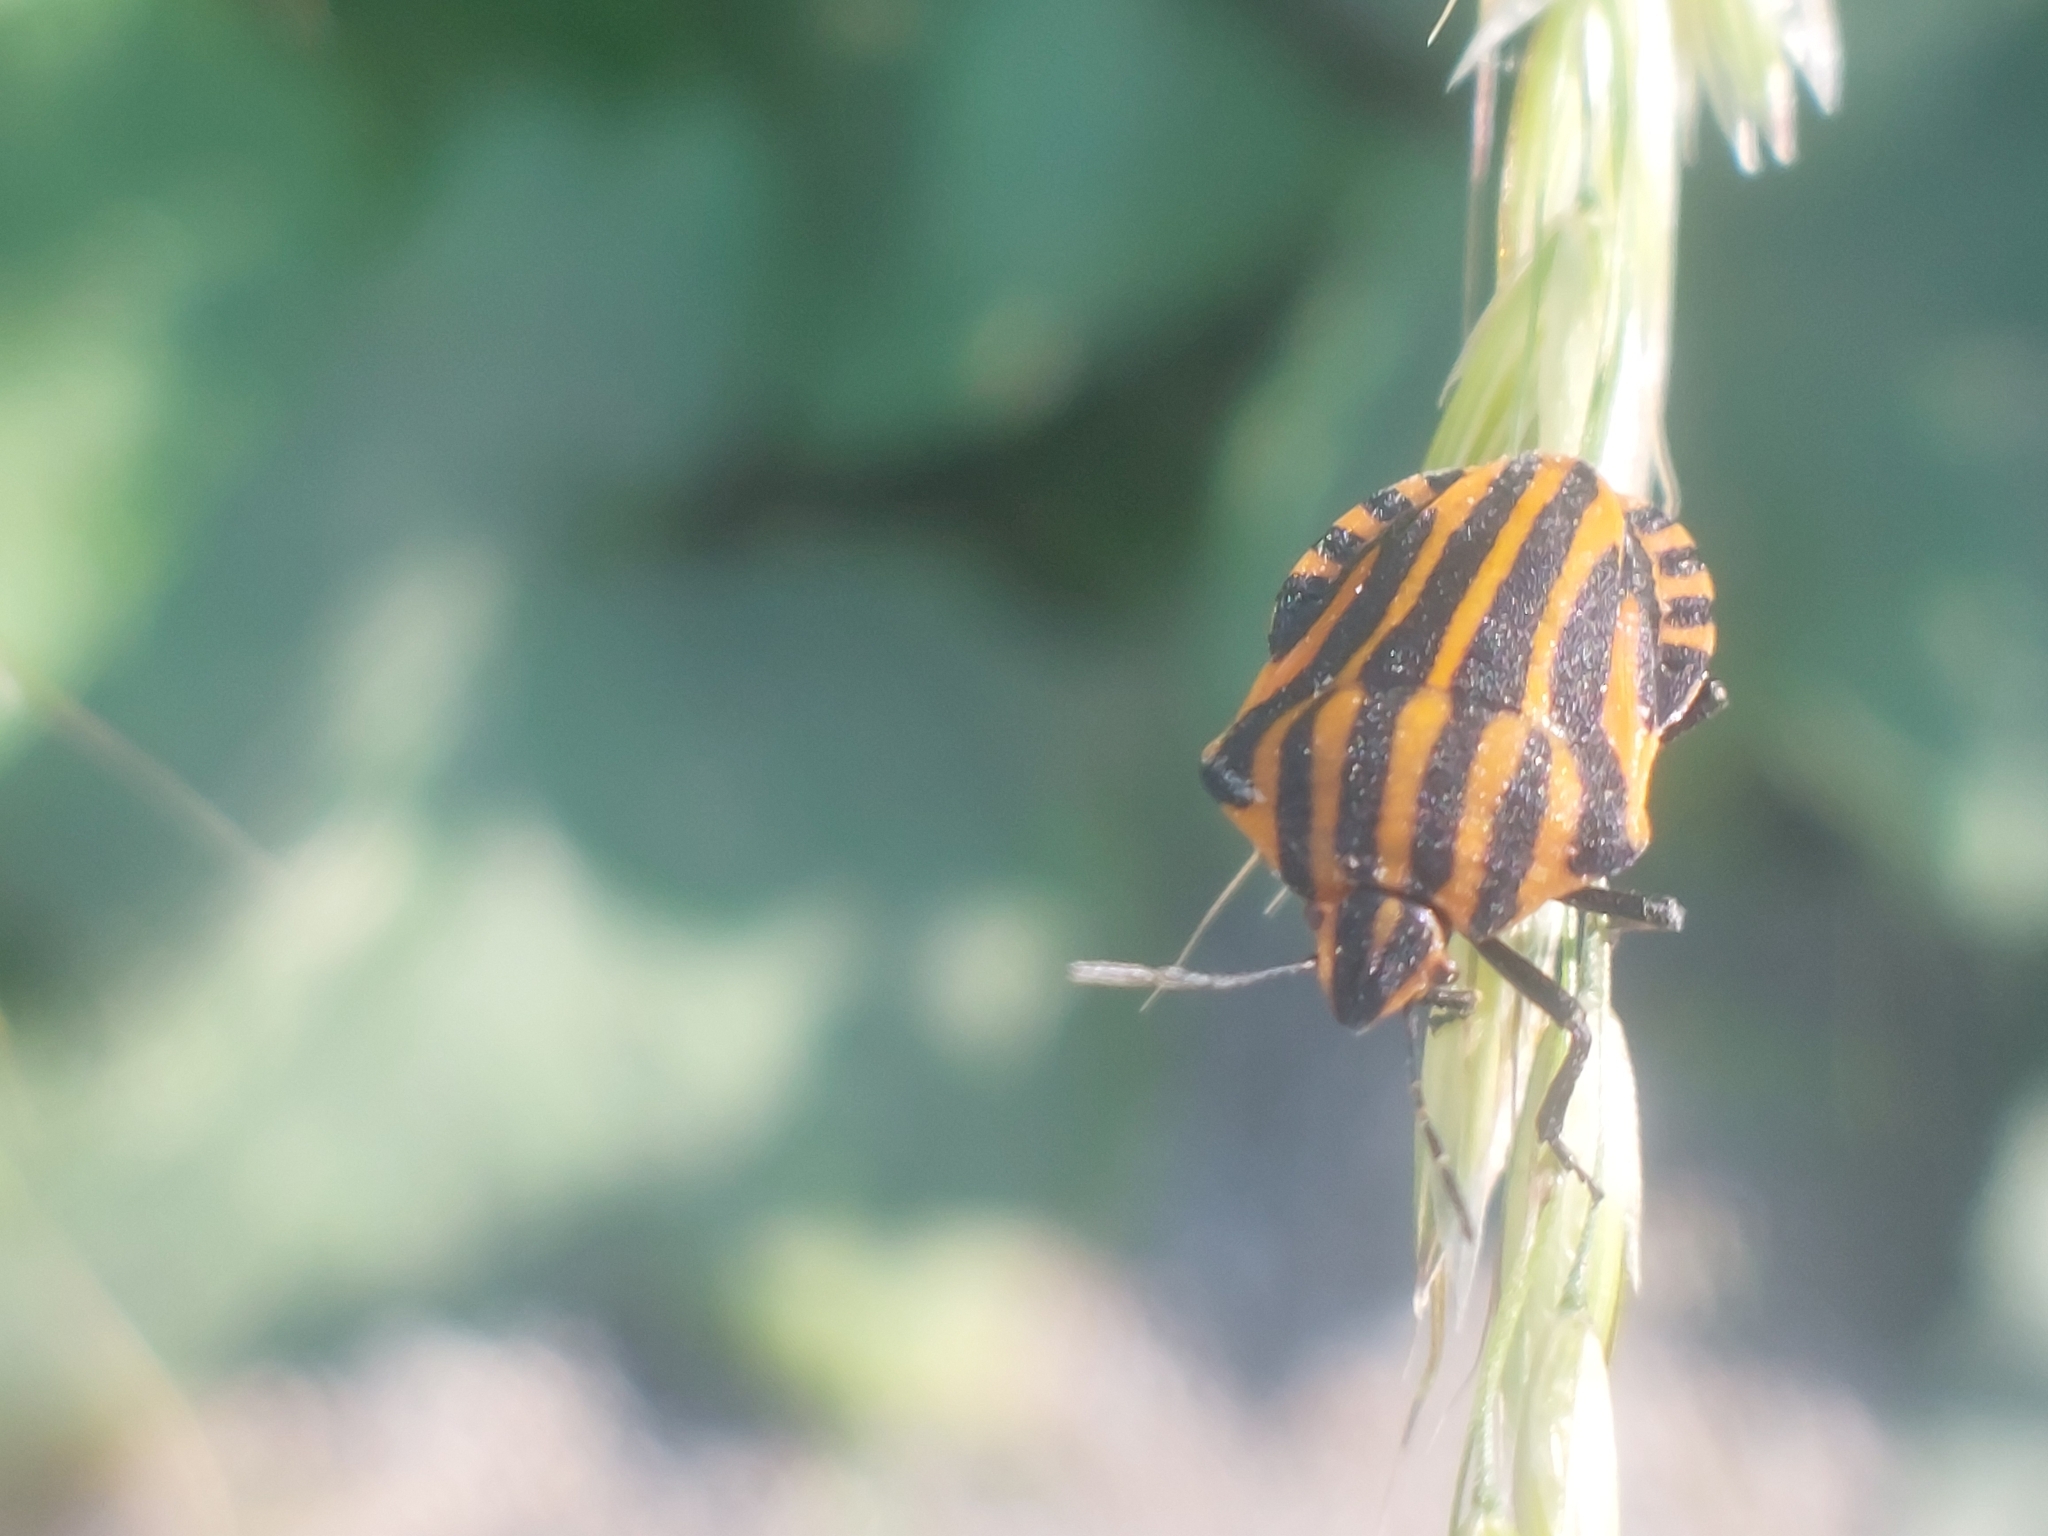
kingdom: Animalia
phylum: Arthropoda
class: Insecta
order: Hemiptera
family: Pentatomidae
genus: Graphosoma
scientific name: Graphosoma italicum
